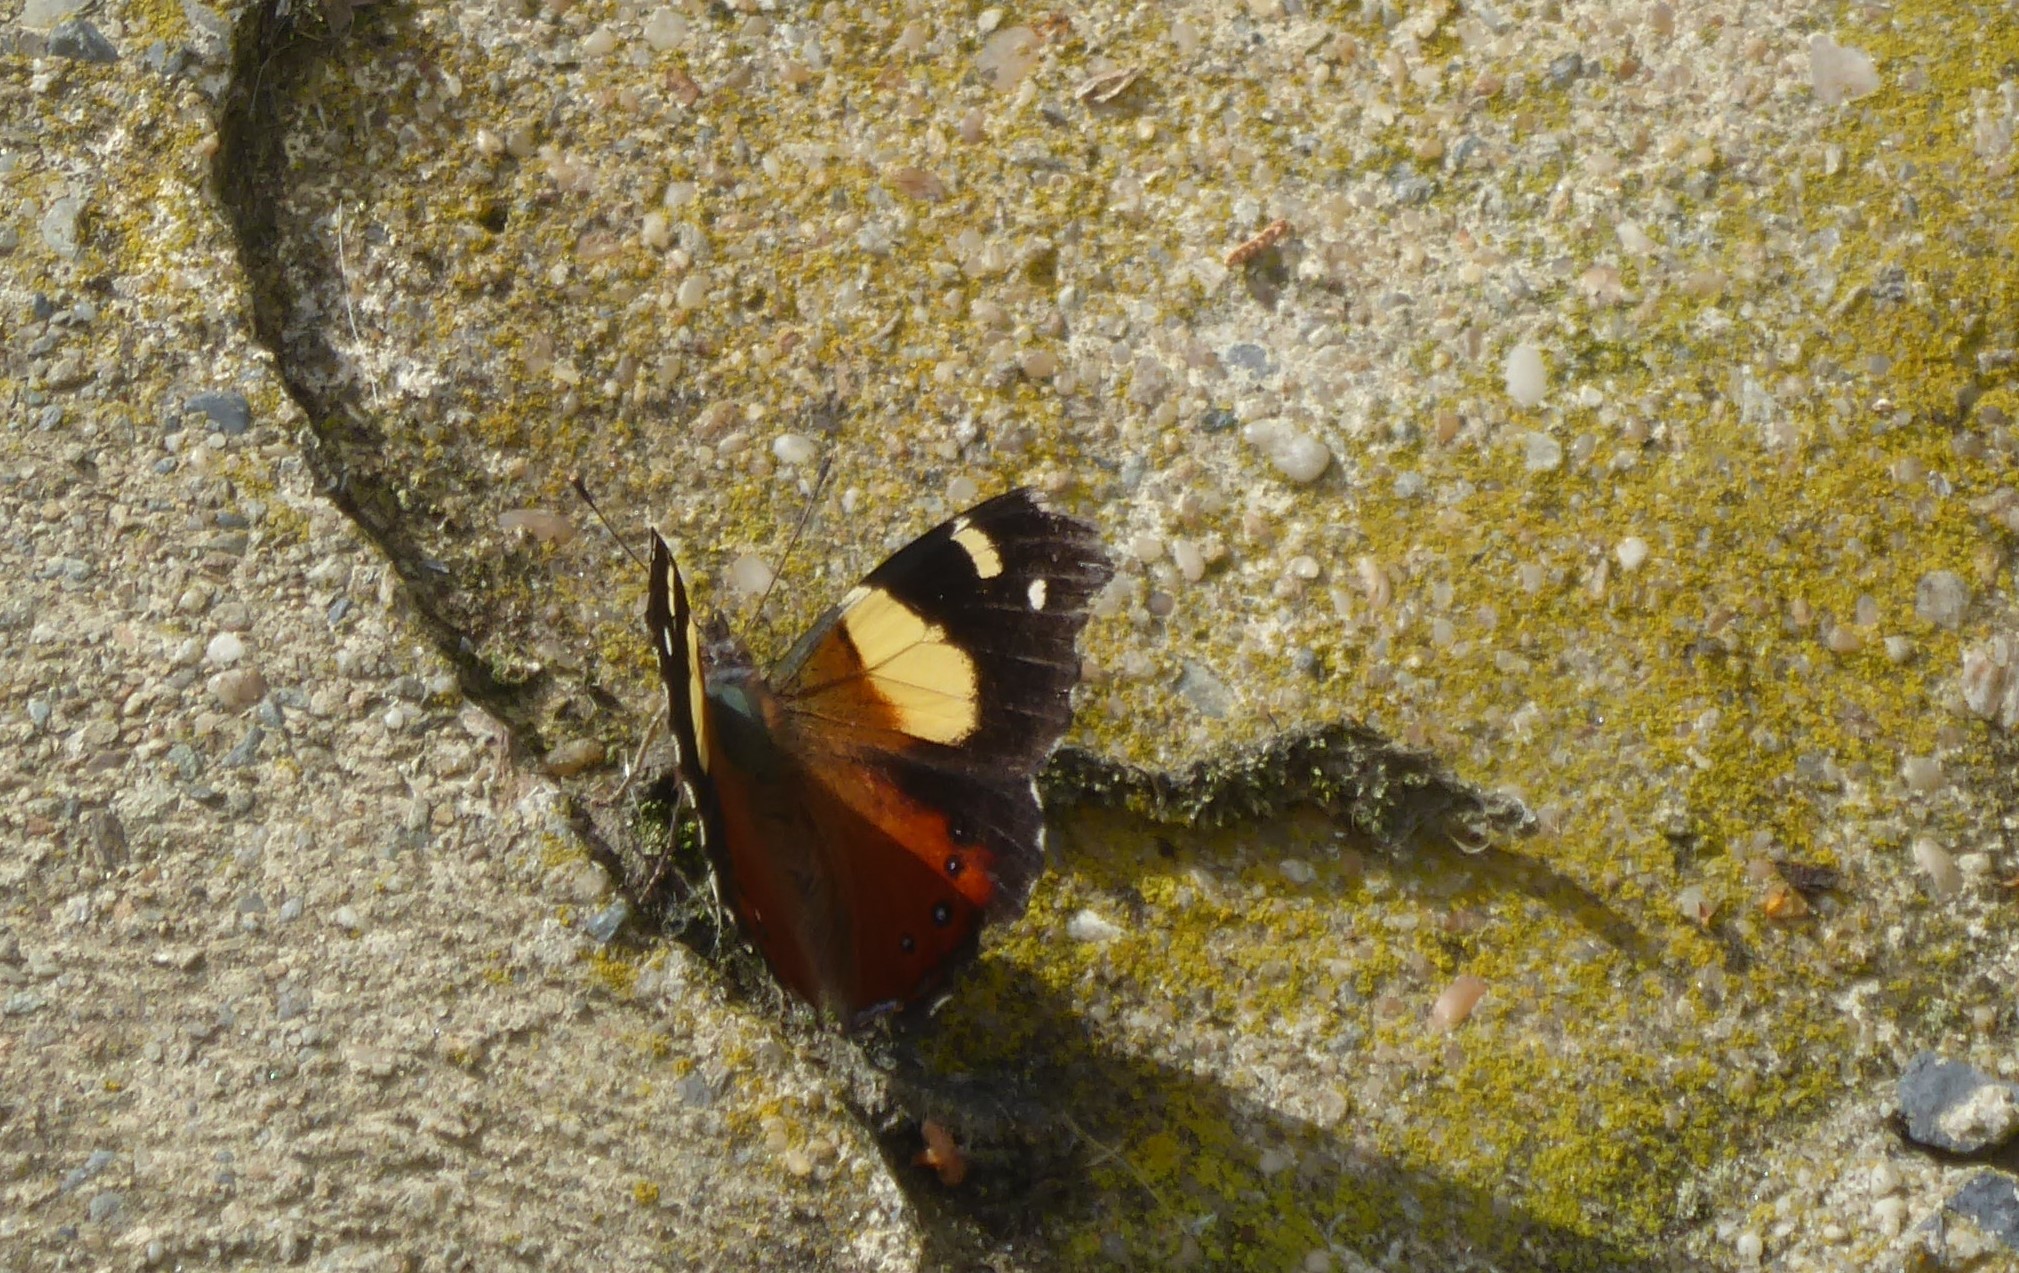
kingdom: Animalia
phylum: Arthropoda
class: Insecta
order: Lepidoptera
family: Nymphalidae
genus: Vanessa
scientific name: Vanessa itea
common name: Yellow admiral
